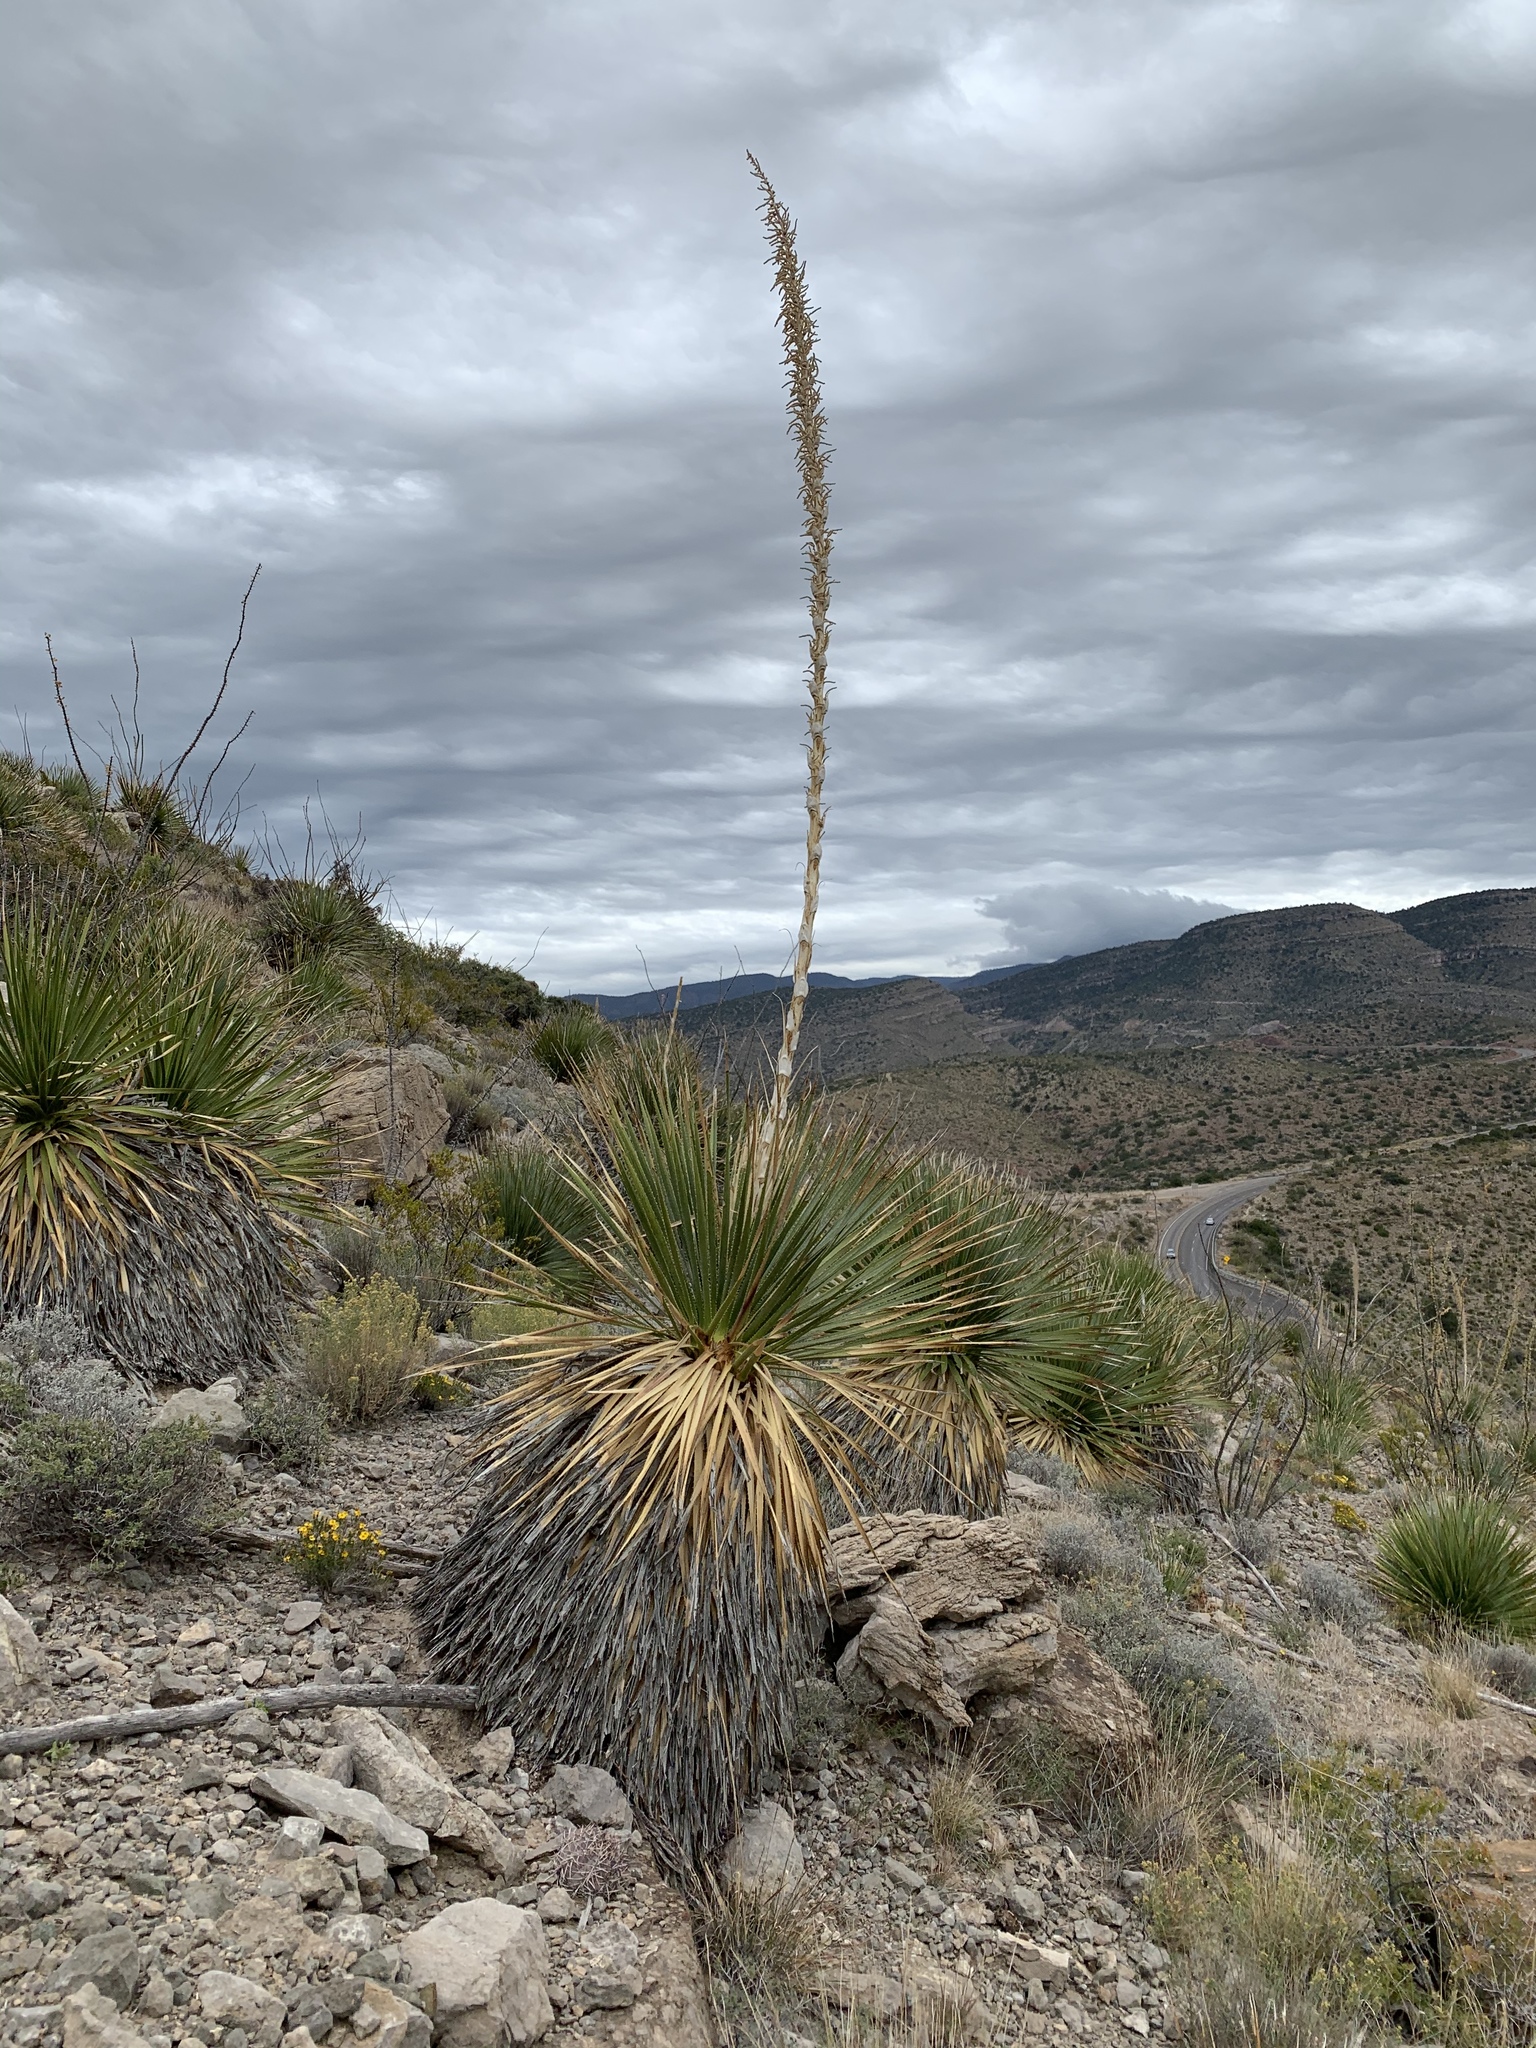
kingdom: Plantae
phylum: Tracheophyta
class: Liliopsida
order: Asparagales
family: Asparagaceae
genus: Dasylirion
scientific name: Dasylirion wheeleri
